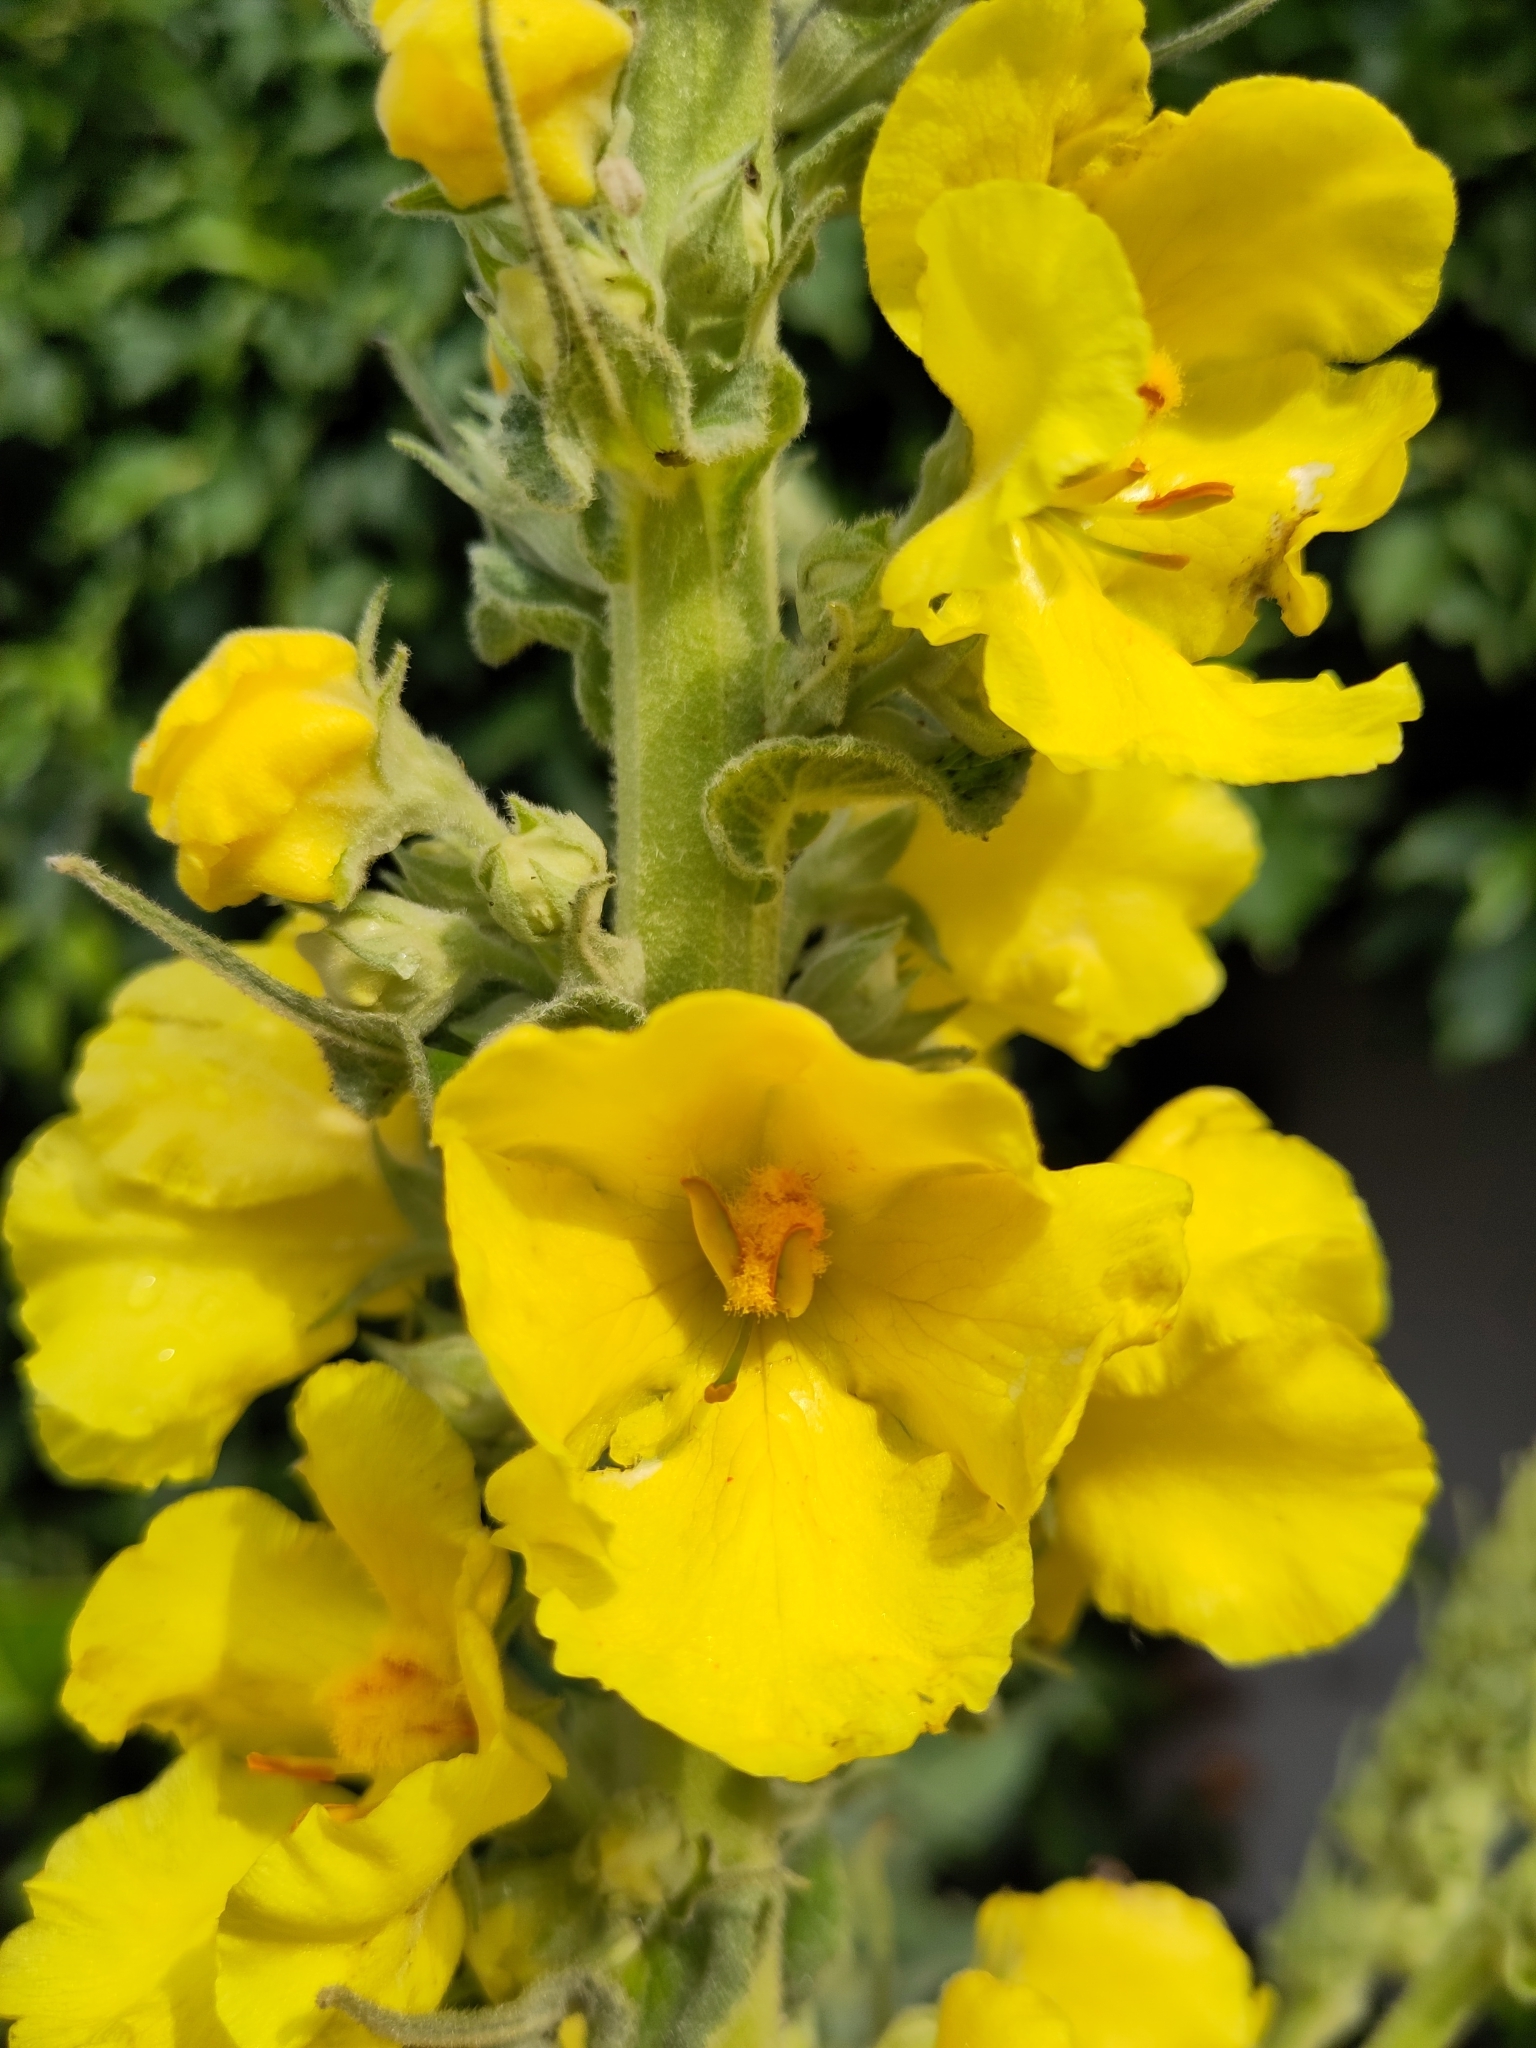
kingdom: Plantae
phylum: Tracheophyta
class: Magnoliopsida
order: Lamiales
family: Scrophulariaceae
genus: Verbascum
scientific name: Verbascum phlomoides
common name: Orange mullein
